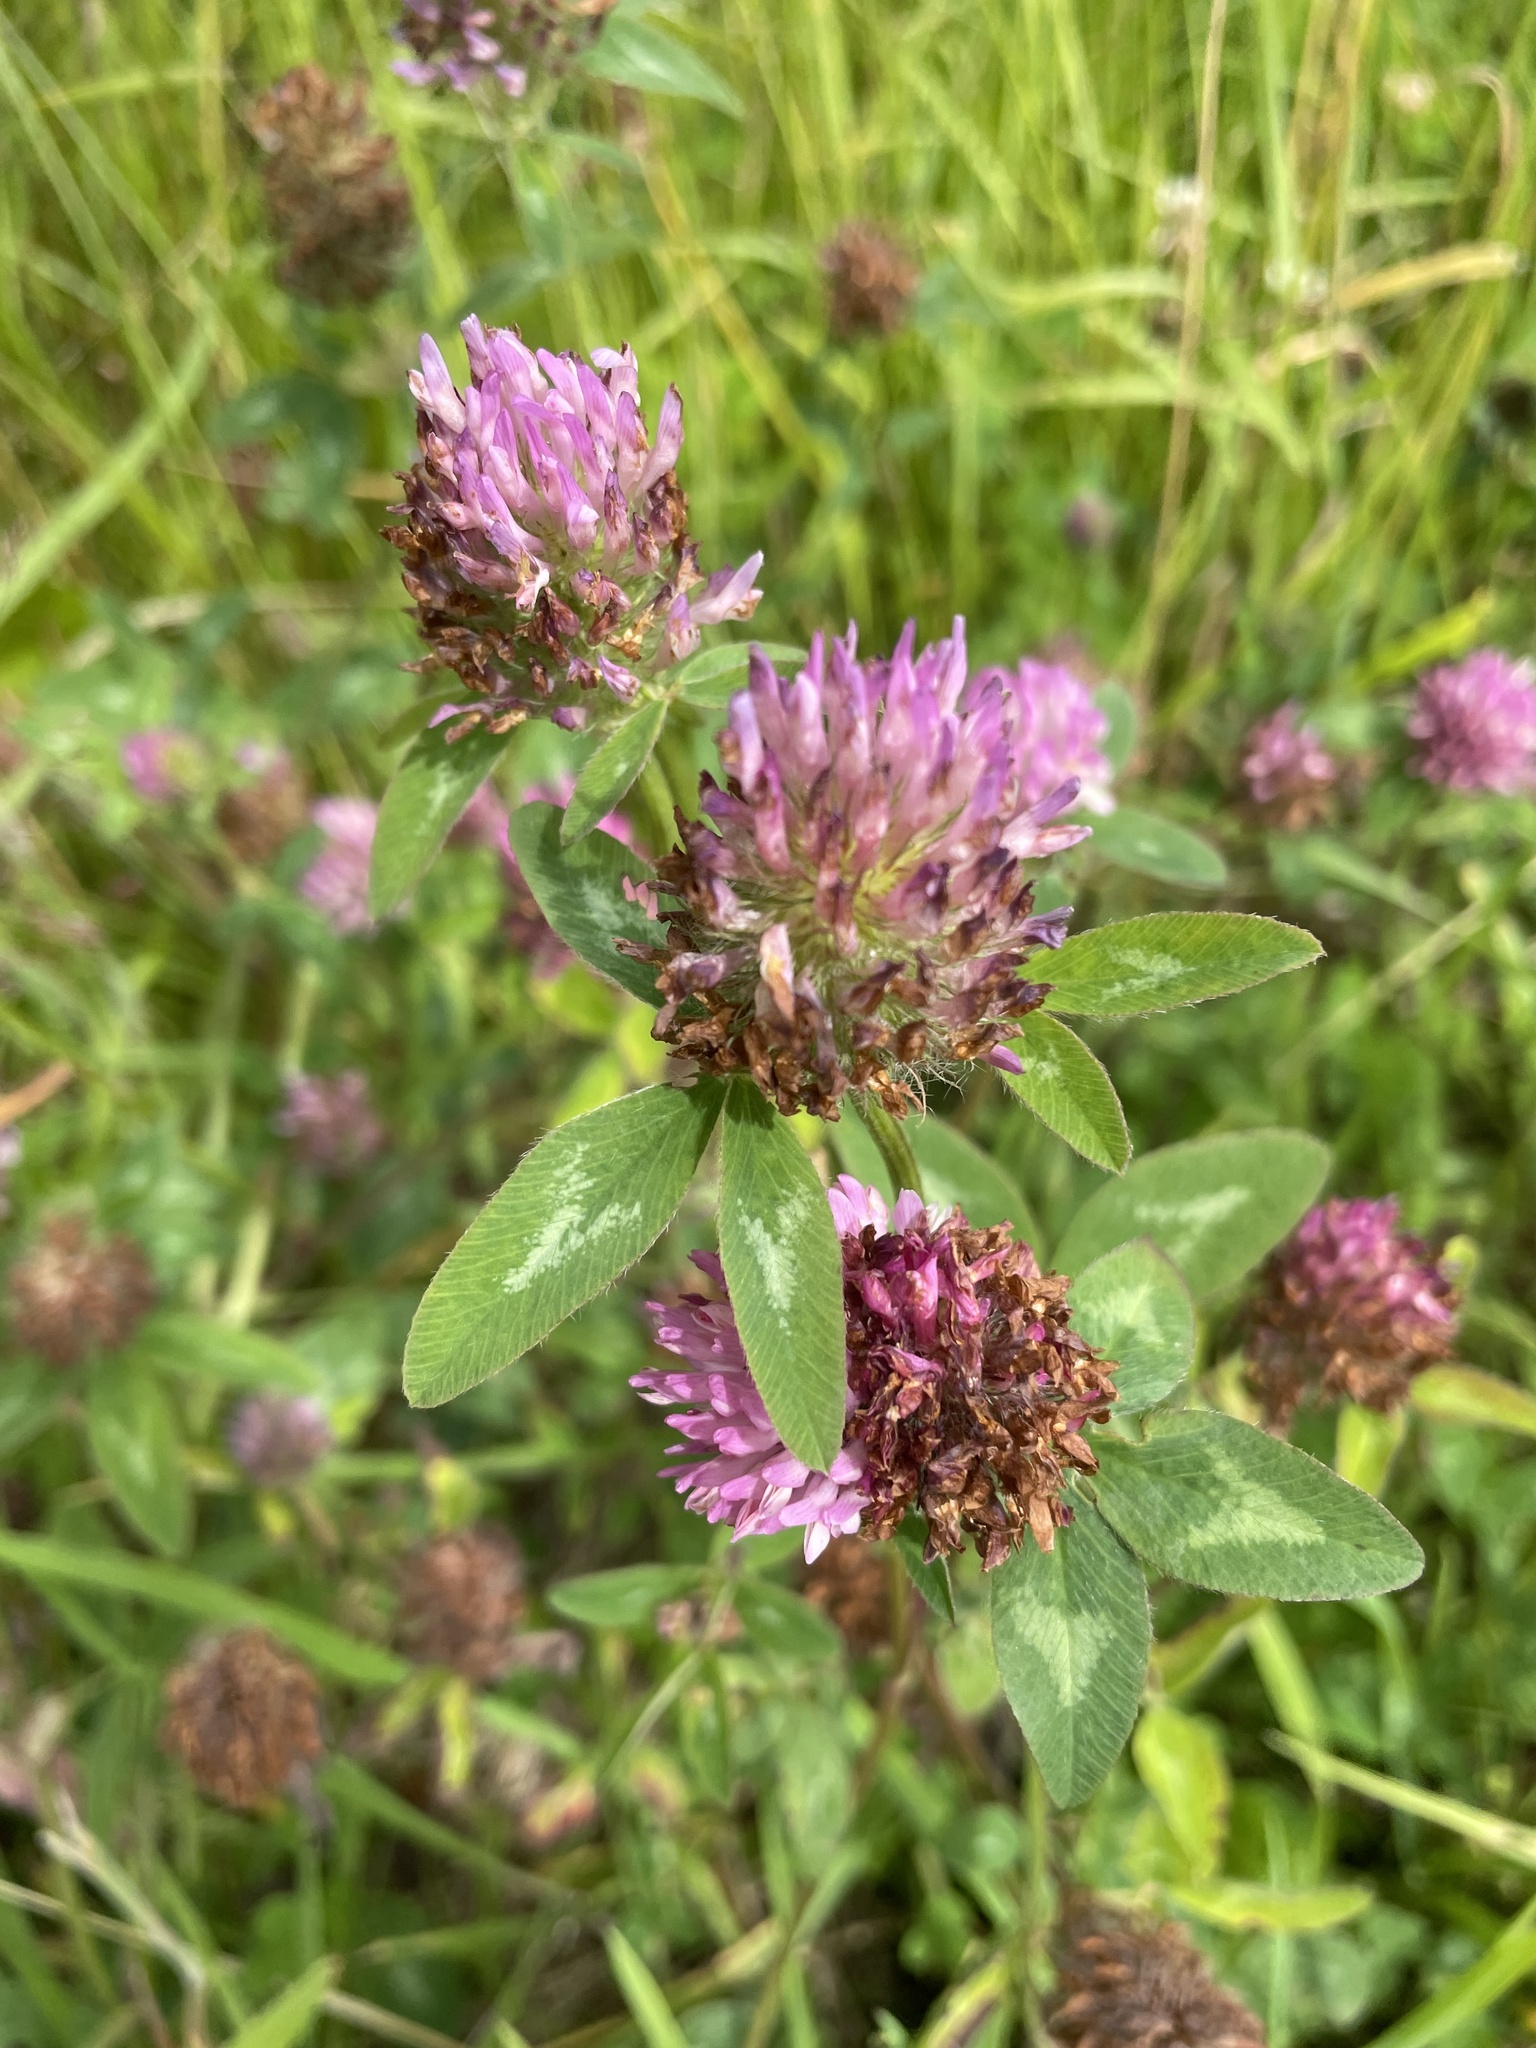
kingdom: Plantae
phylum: Tracheophyta
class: Magnoliopsida
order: Fabales
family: Fabaceae
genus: Trifolium
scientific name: Trifolium pratense
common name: Red clover
